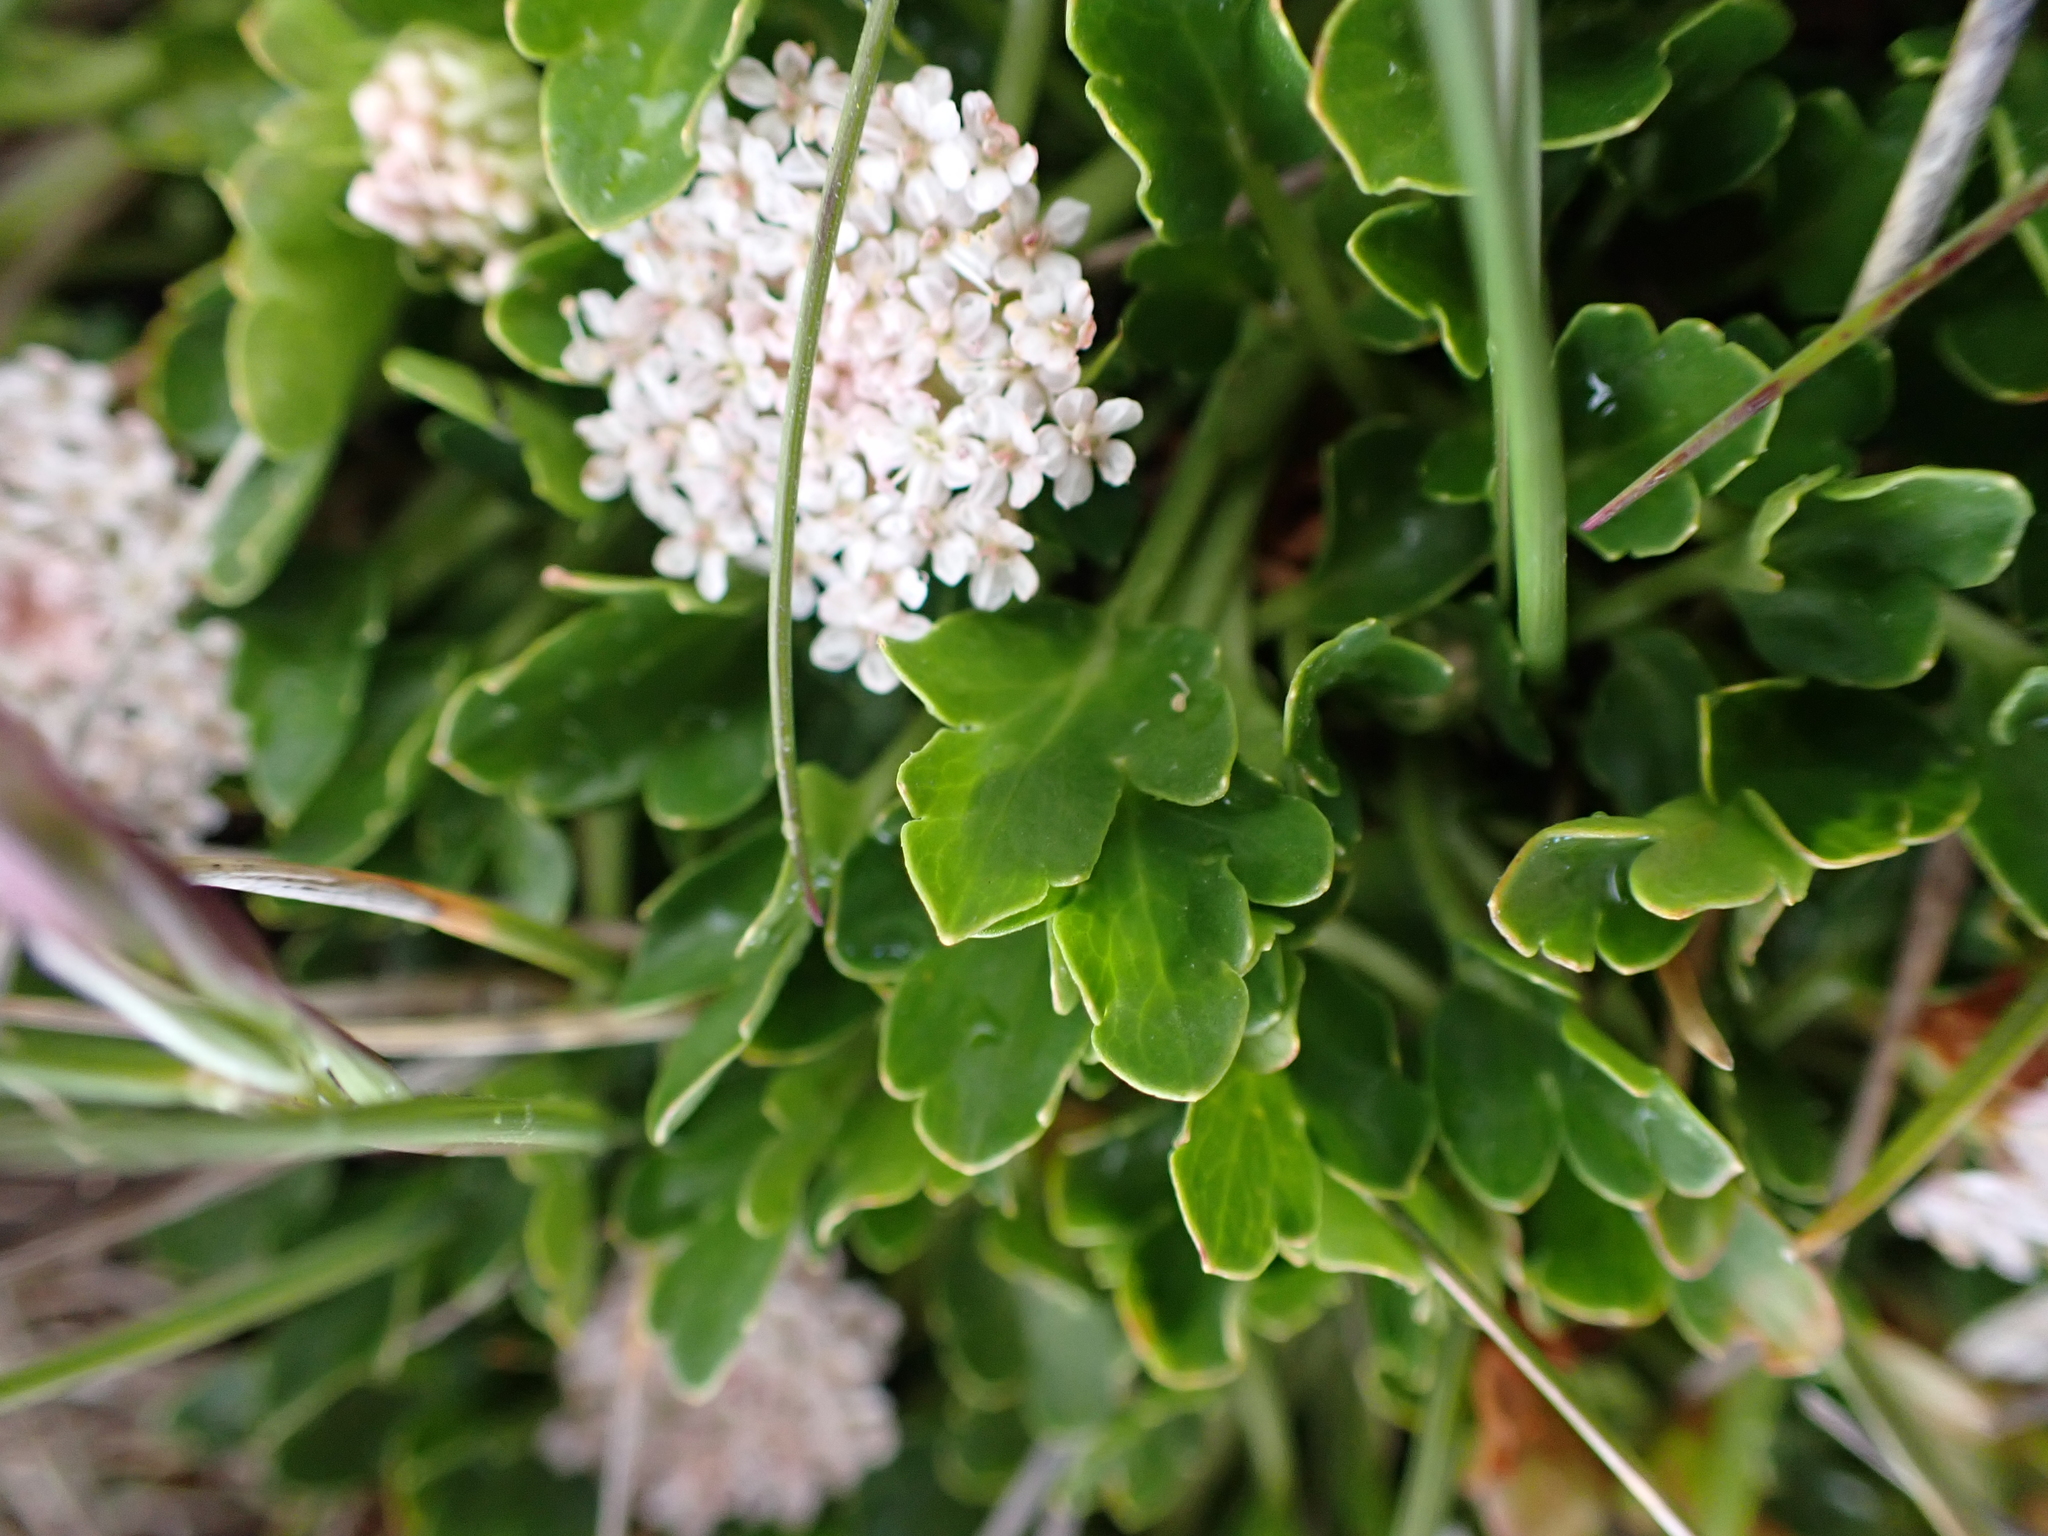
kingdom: Plantae
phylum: Tracheophyta
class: Magnoliopsida
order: Apiales
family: Araliaceae
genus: Trachymene
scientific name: Trachymene humilis
